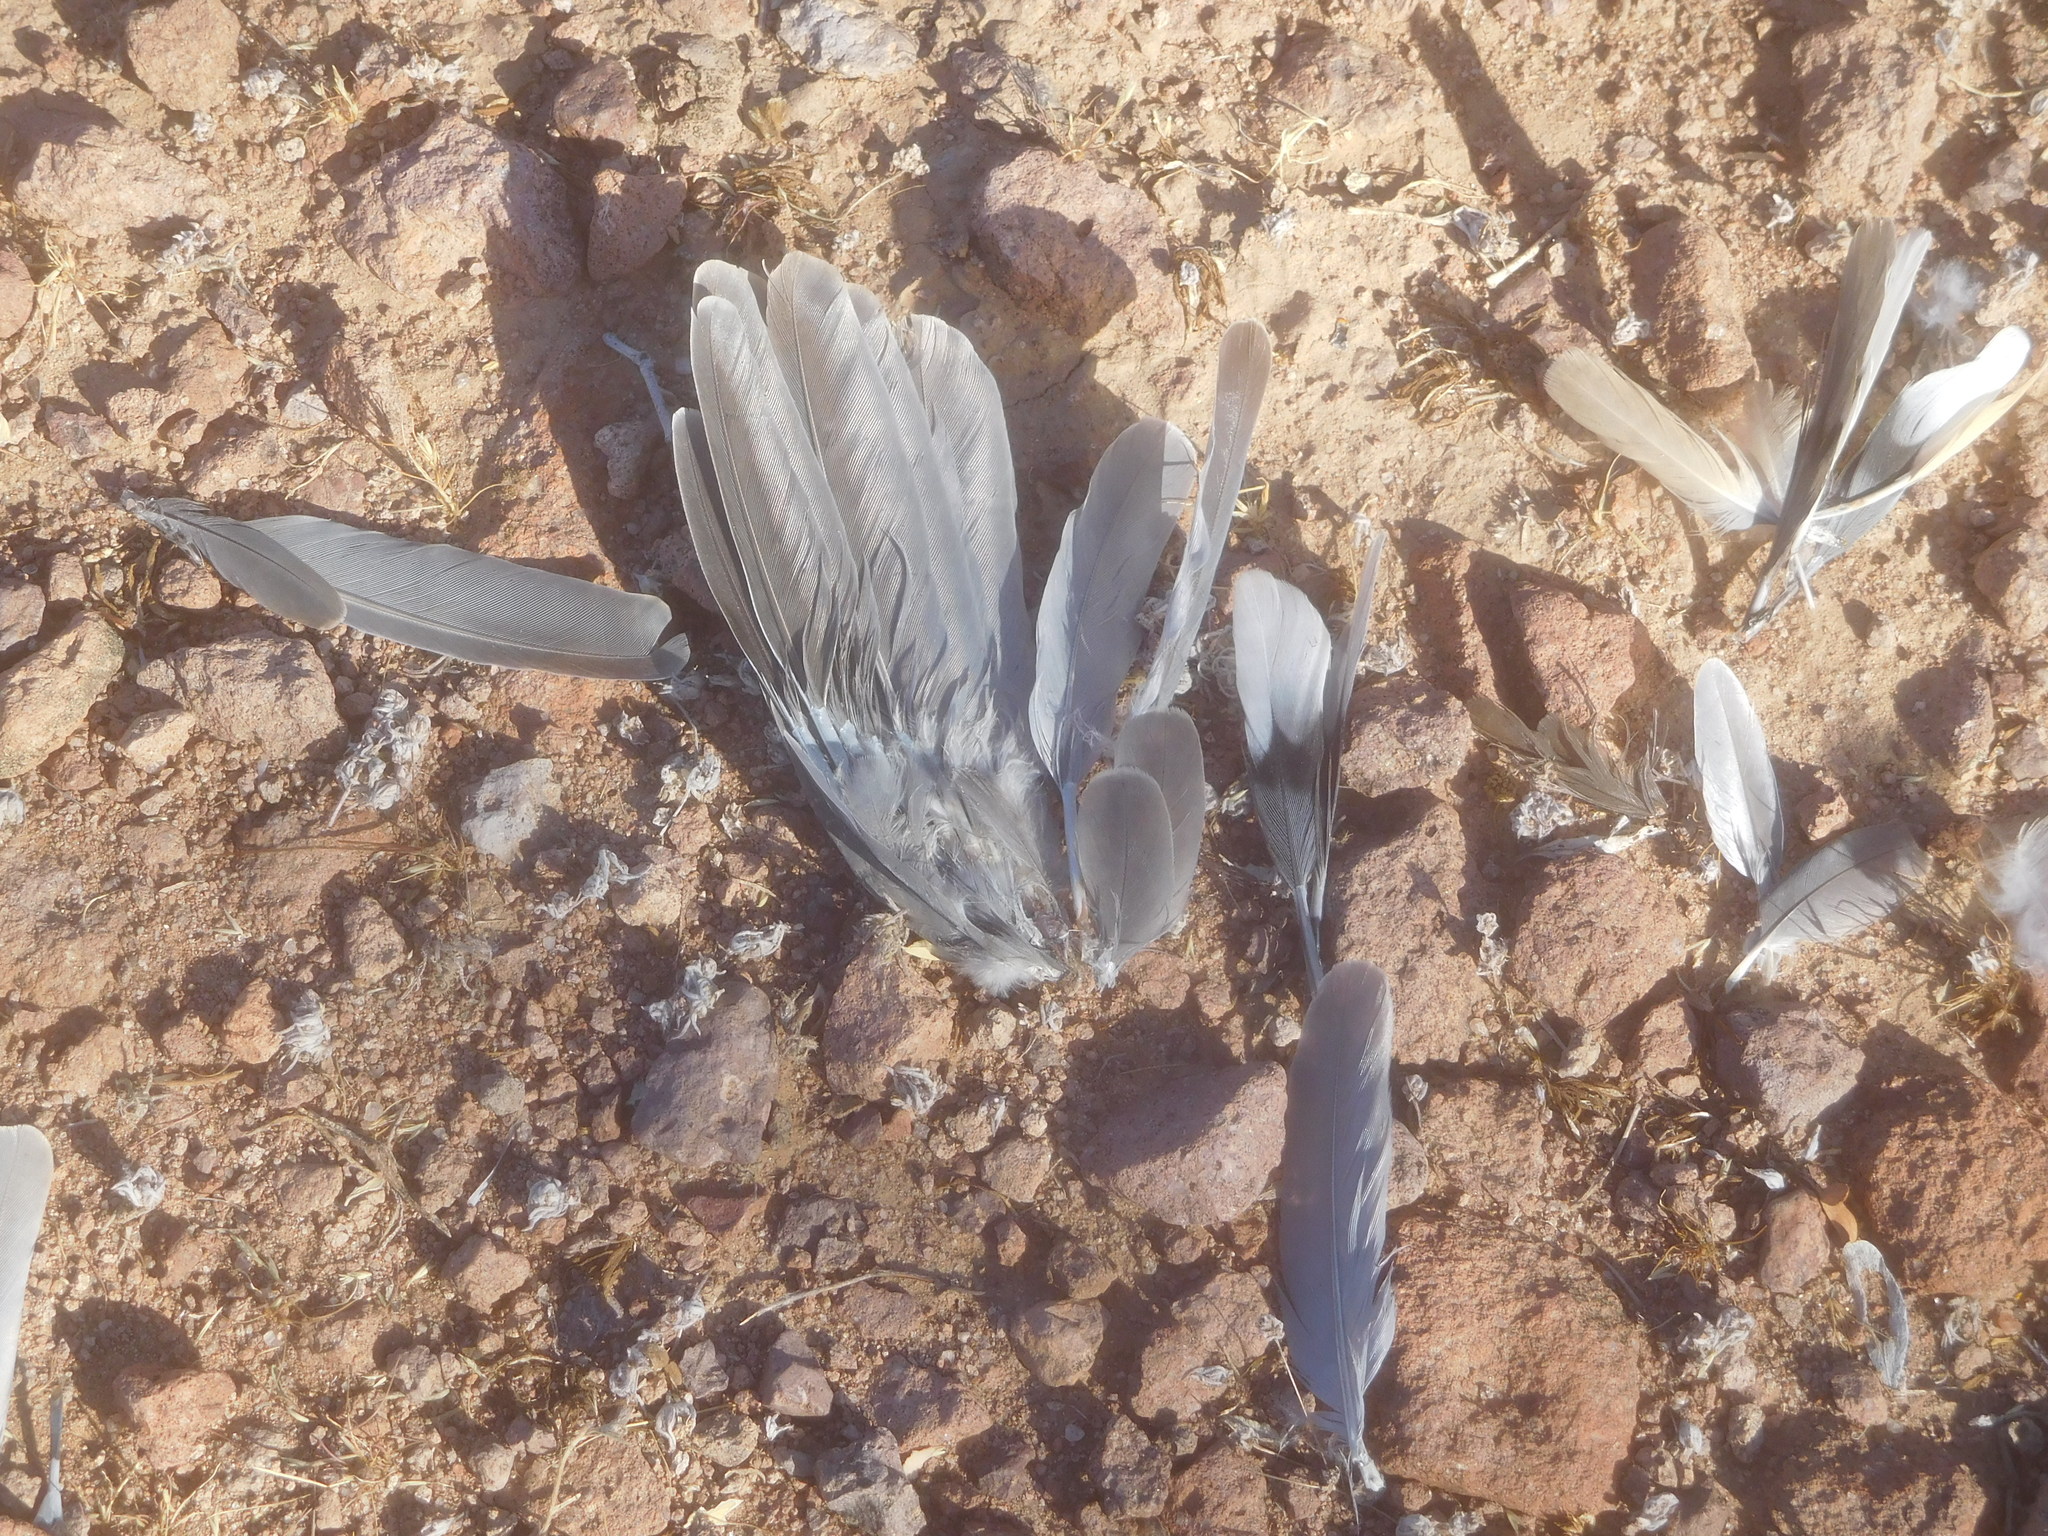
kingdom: Animalia
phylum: Chordata
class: Aves
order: Columbiformes
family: Columbidae
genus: Zenaida
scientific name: Zenaida macroura
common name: Mourning dove
